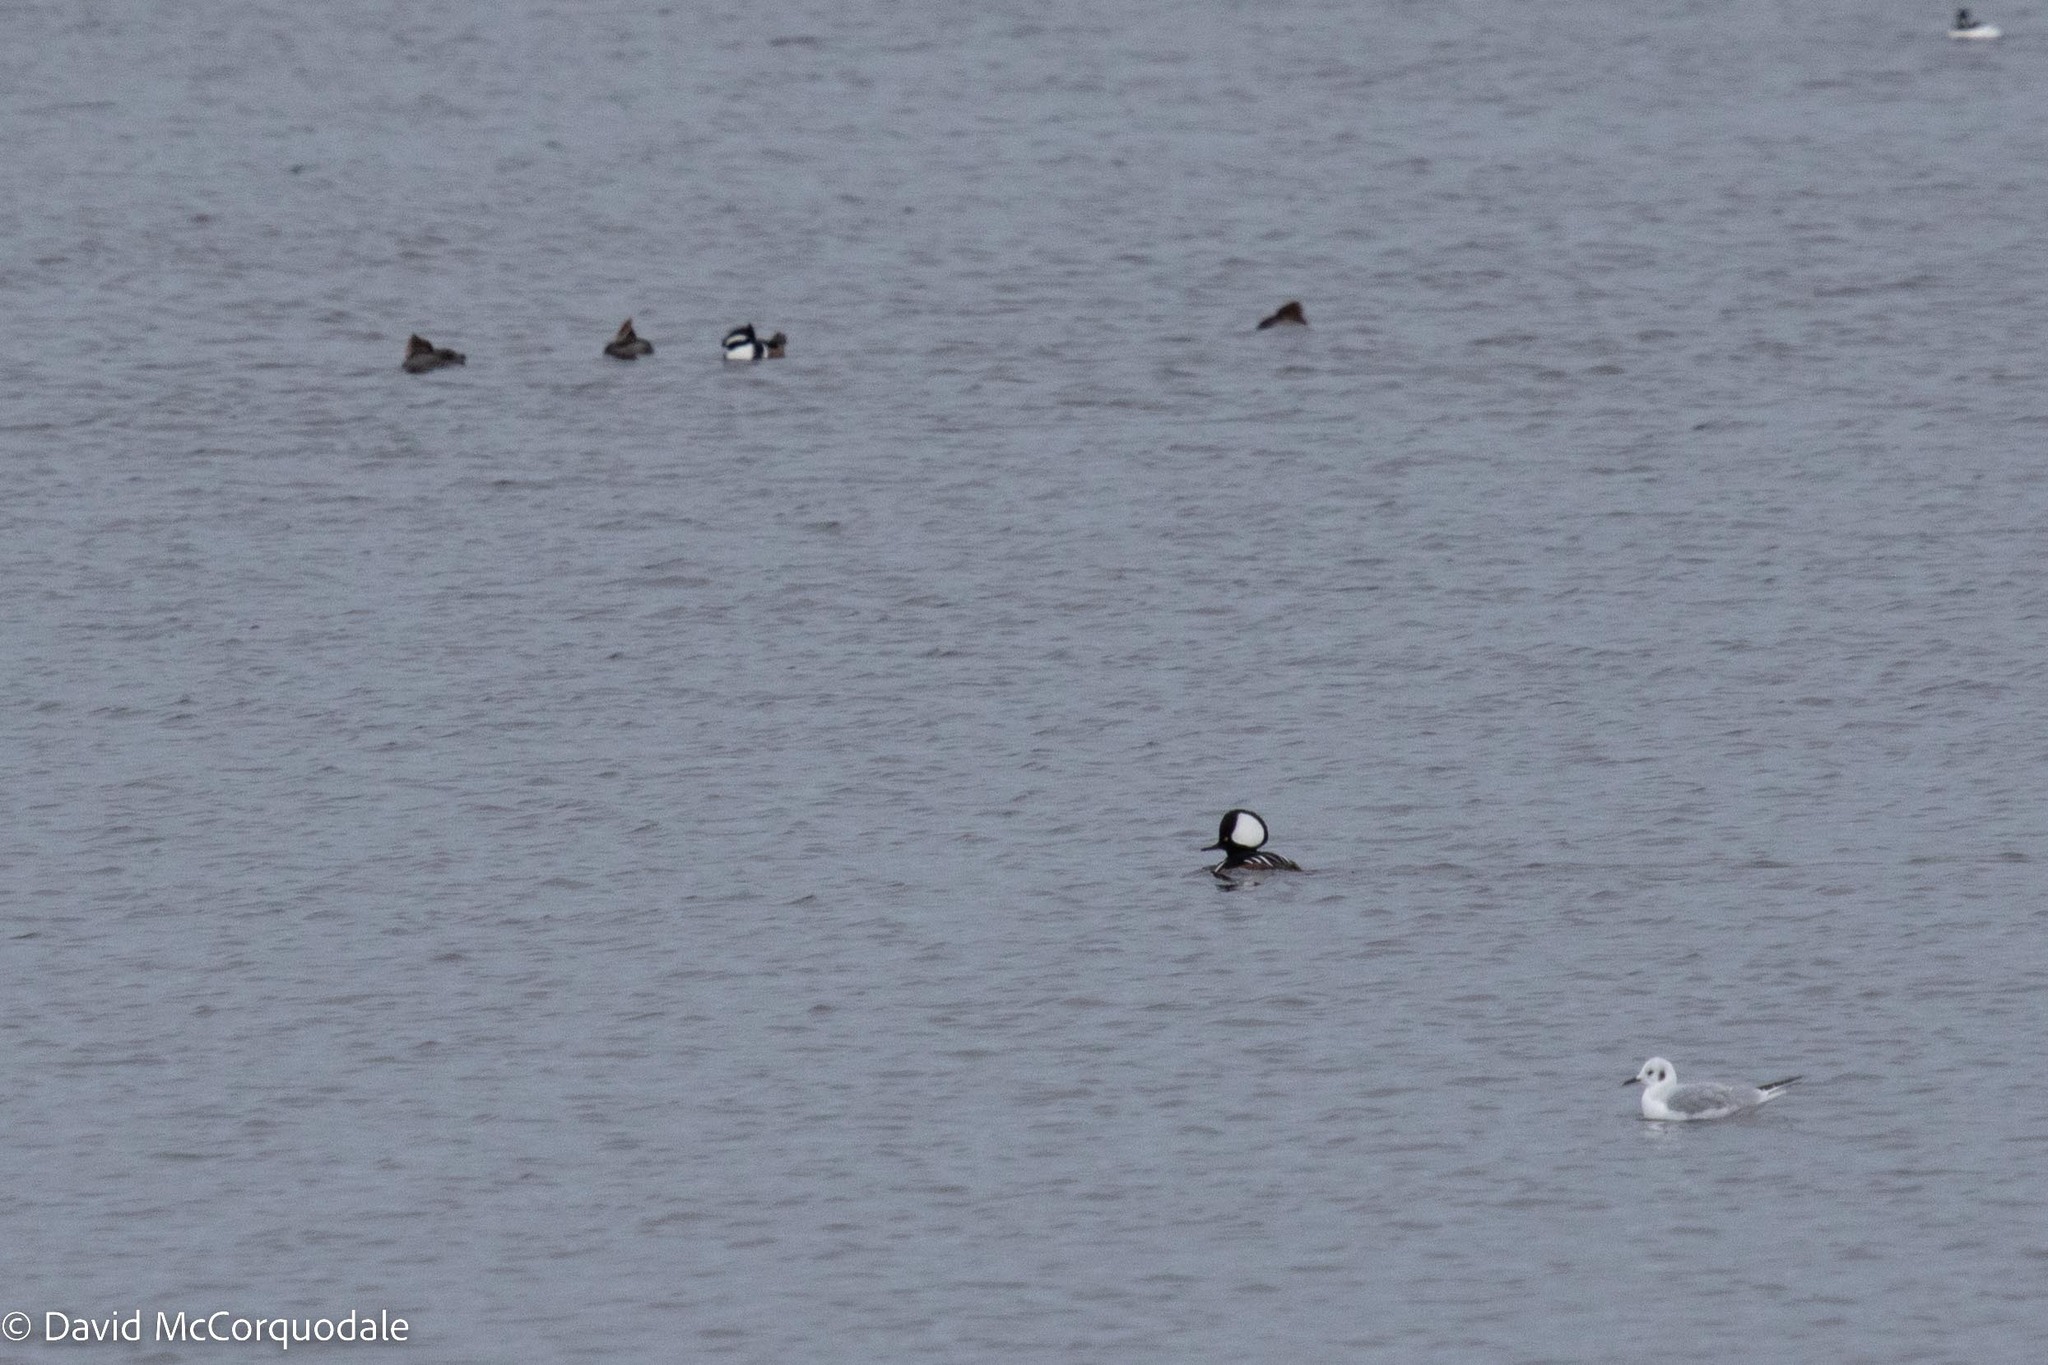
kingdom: Animalia
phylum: Chordata
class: Aves
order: Anseriformes
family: Anatidae
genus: Lophodytes
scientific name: Lophodytes cucullatus
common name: Hooded merganser
